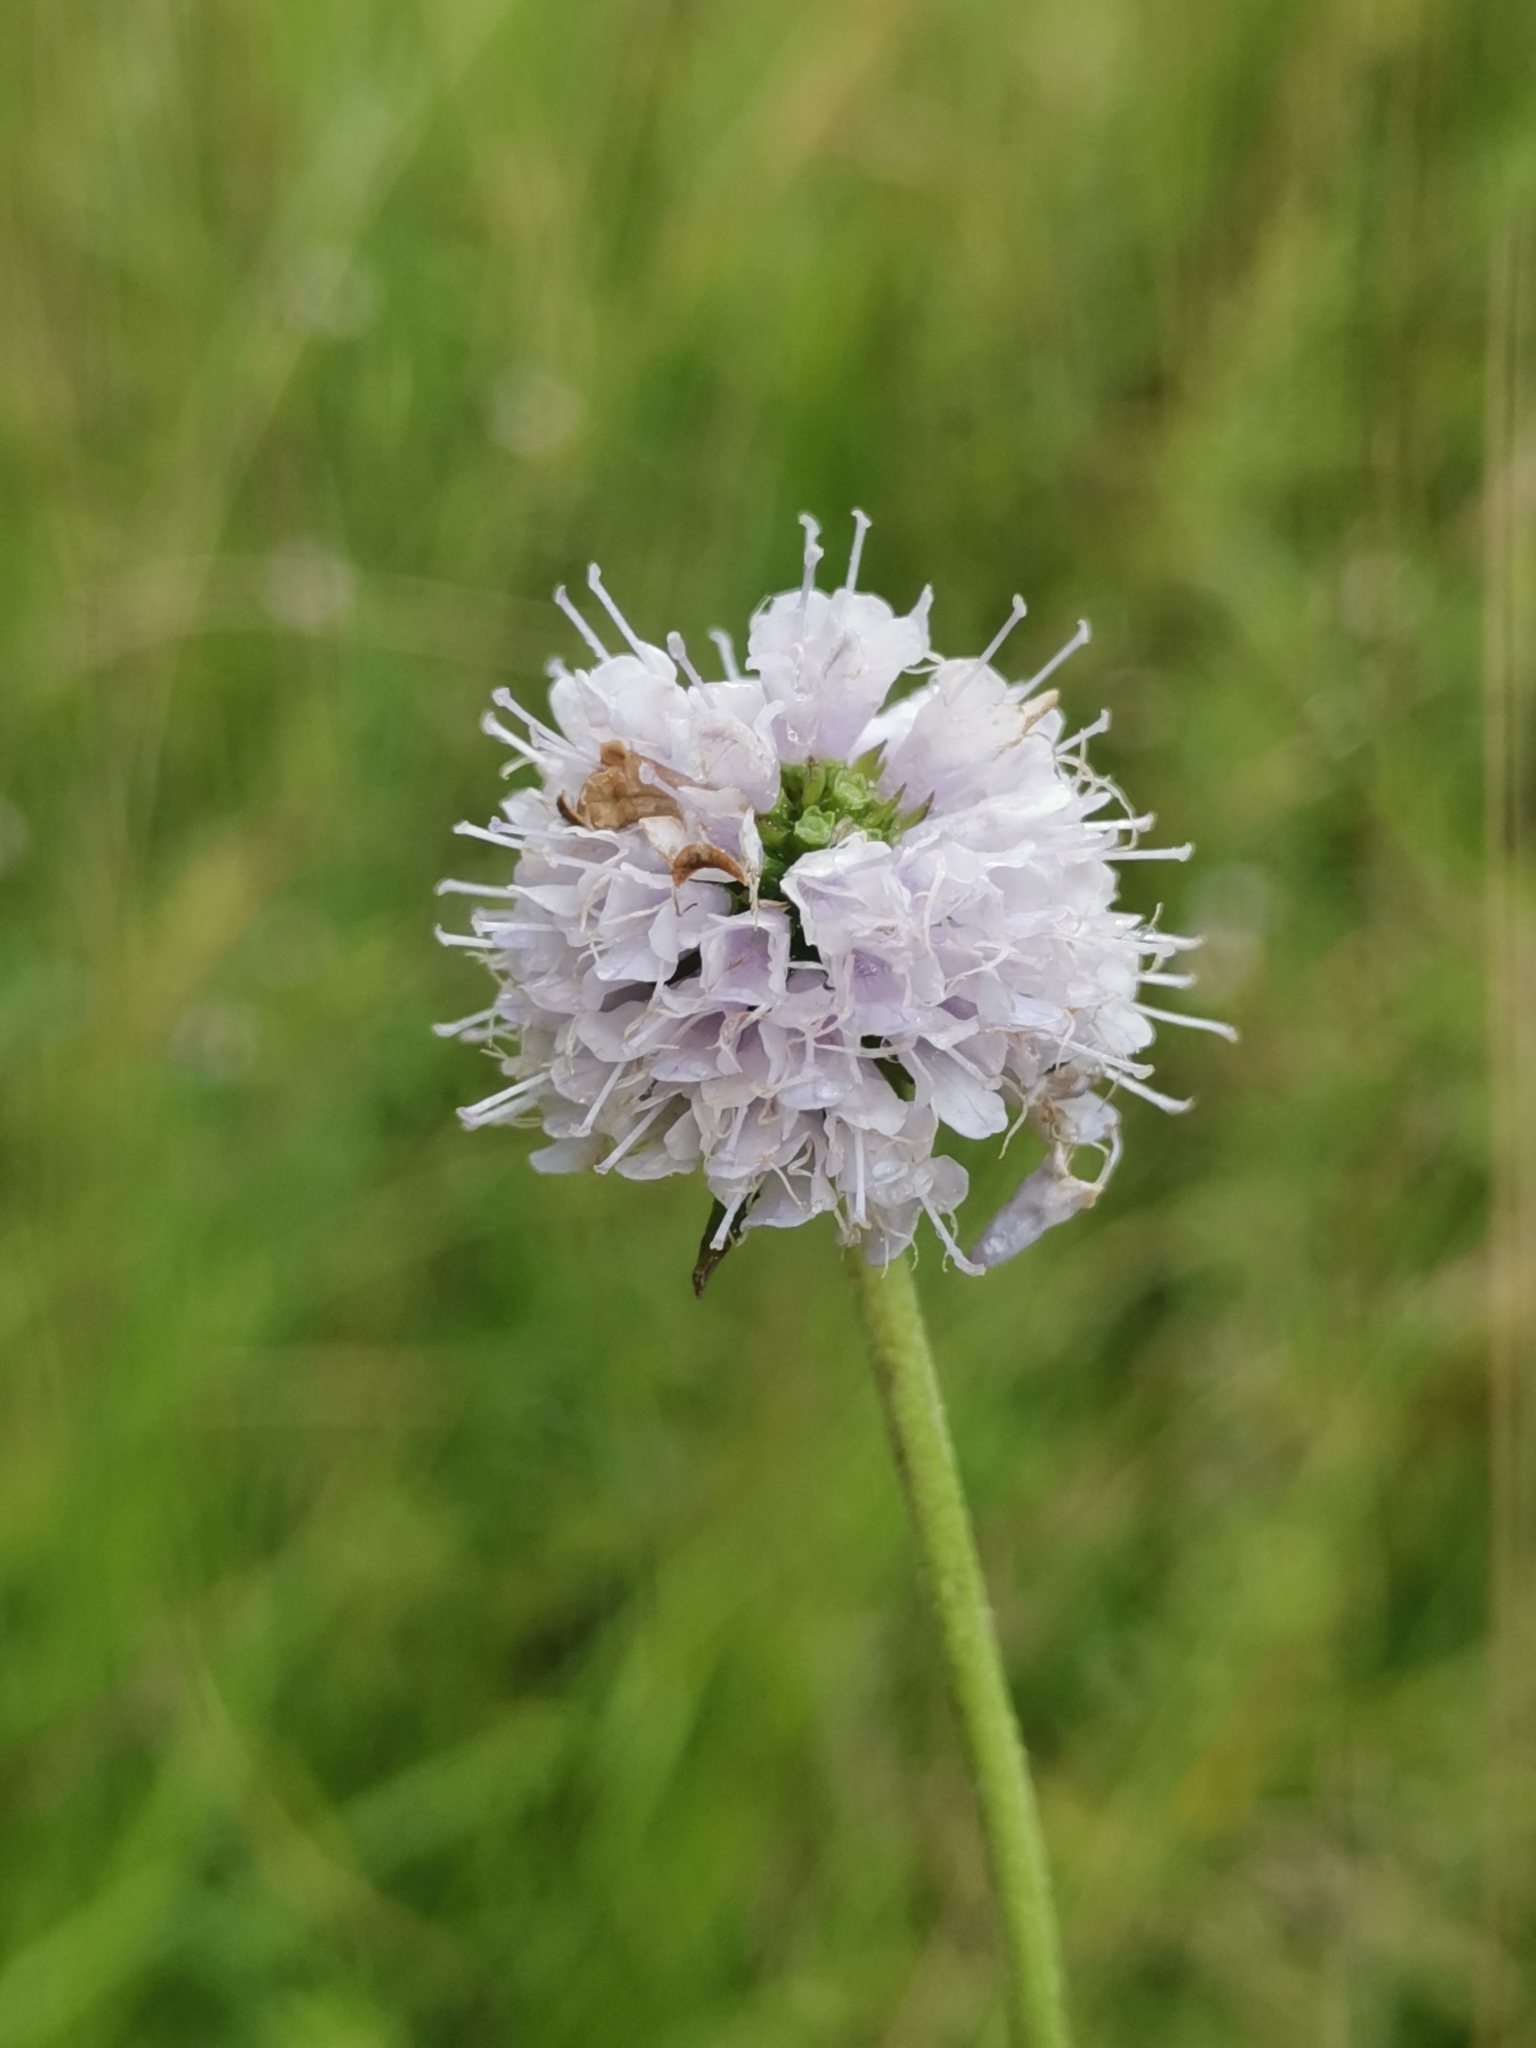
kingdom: Plantae
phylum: Tracheophyta
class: Magnoliopsida
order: Dipsacales
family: Caprifoliaceae
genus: Succisella
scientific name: Succisella inflexa
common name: Southern succisella
